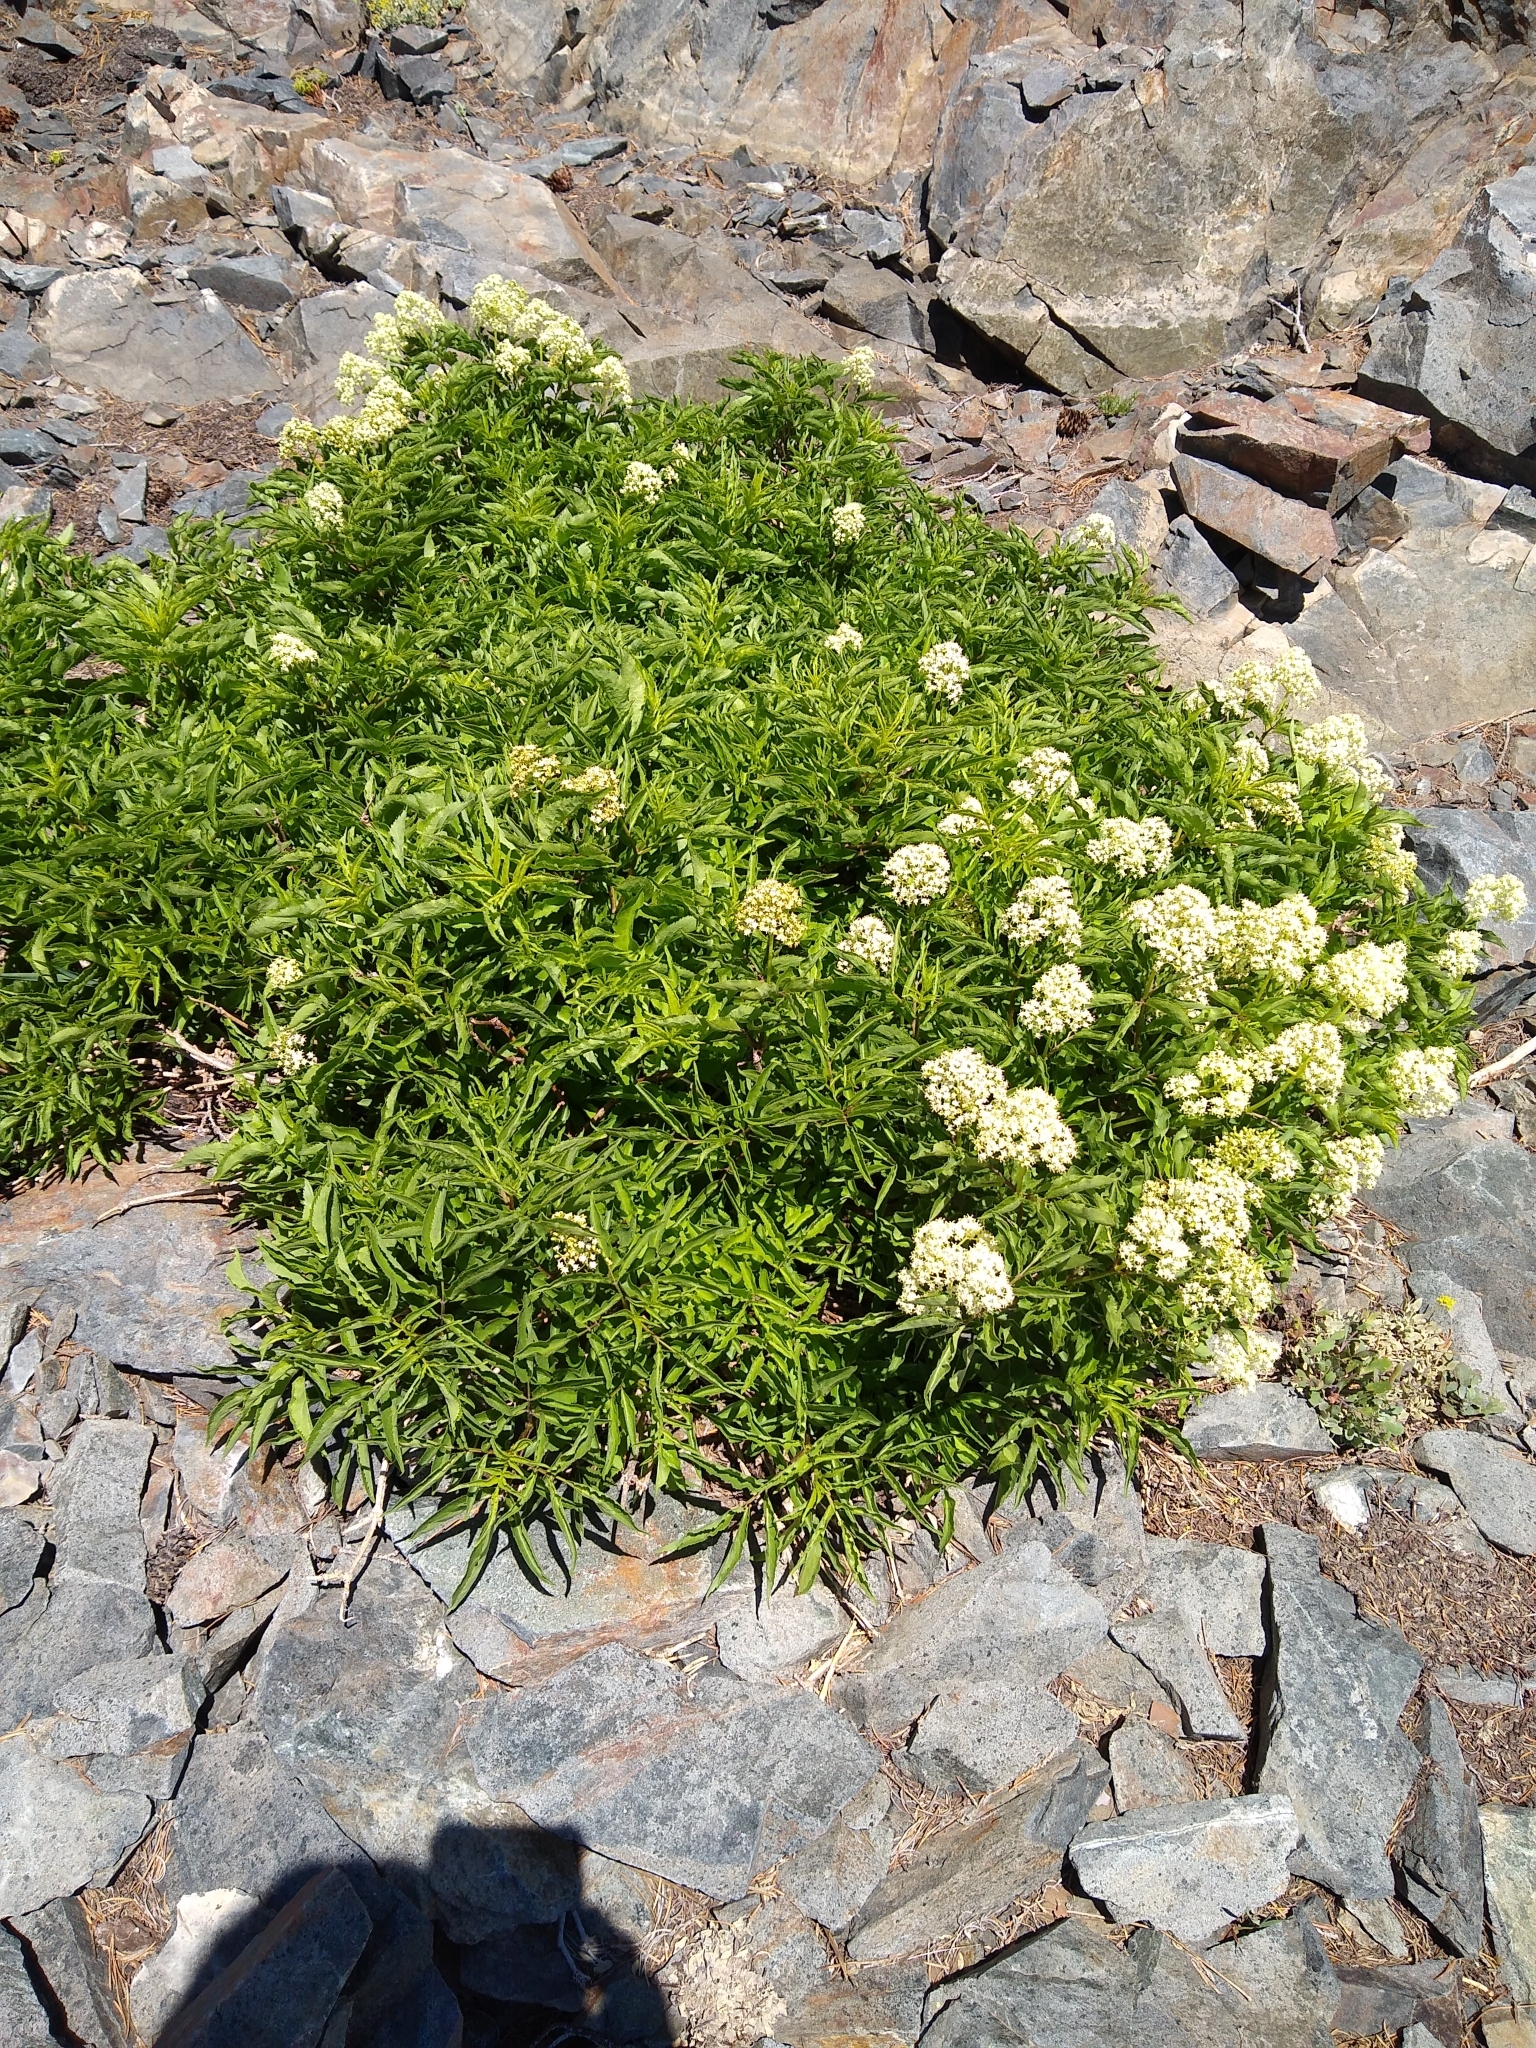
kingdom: Plantae
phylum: Tracheophyta
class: Magnoliopsida
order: Dipsacales
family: Viburnaceae
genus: Sambucus
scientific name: Sambucus racemosa
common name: Red-berried elder
